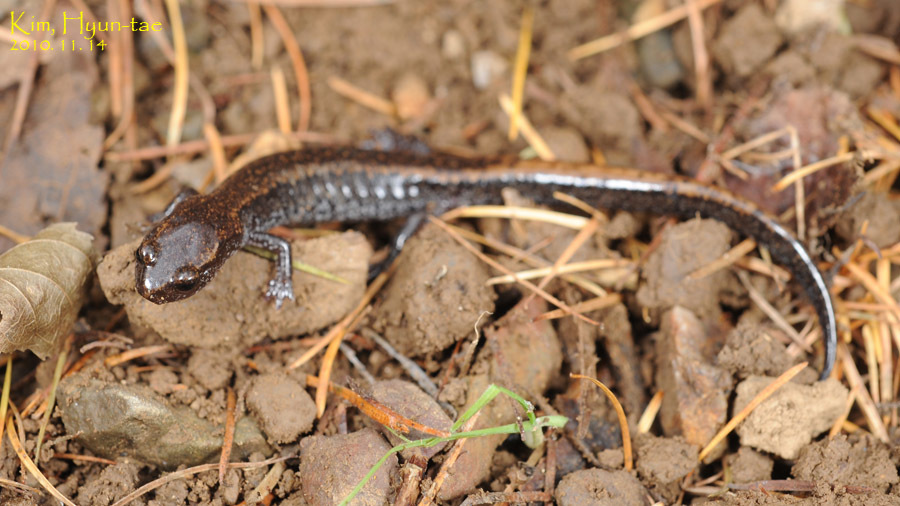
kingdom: Animalia
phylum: Chordata
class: Amphibia
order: Caudata
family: Plethodontidae
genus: Karsenia
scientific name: Karsenia koreana
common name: Korean crevice salamander
